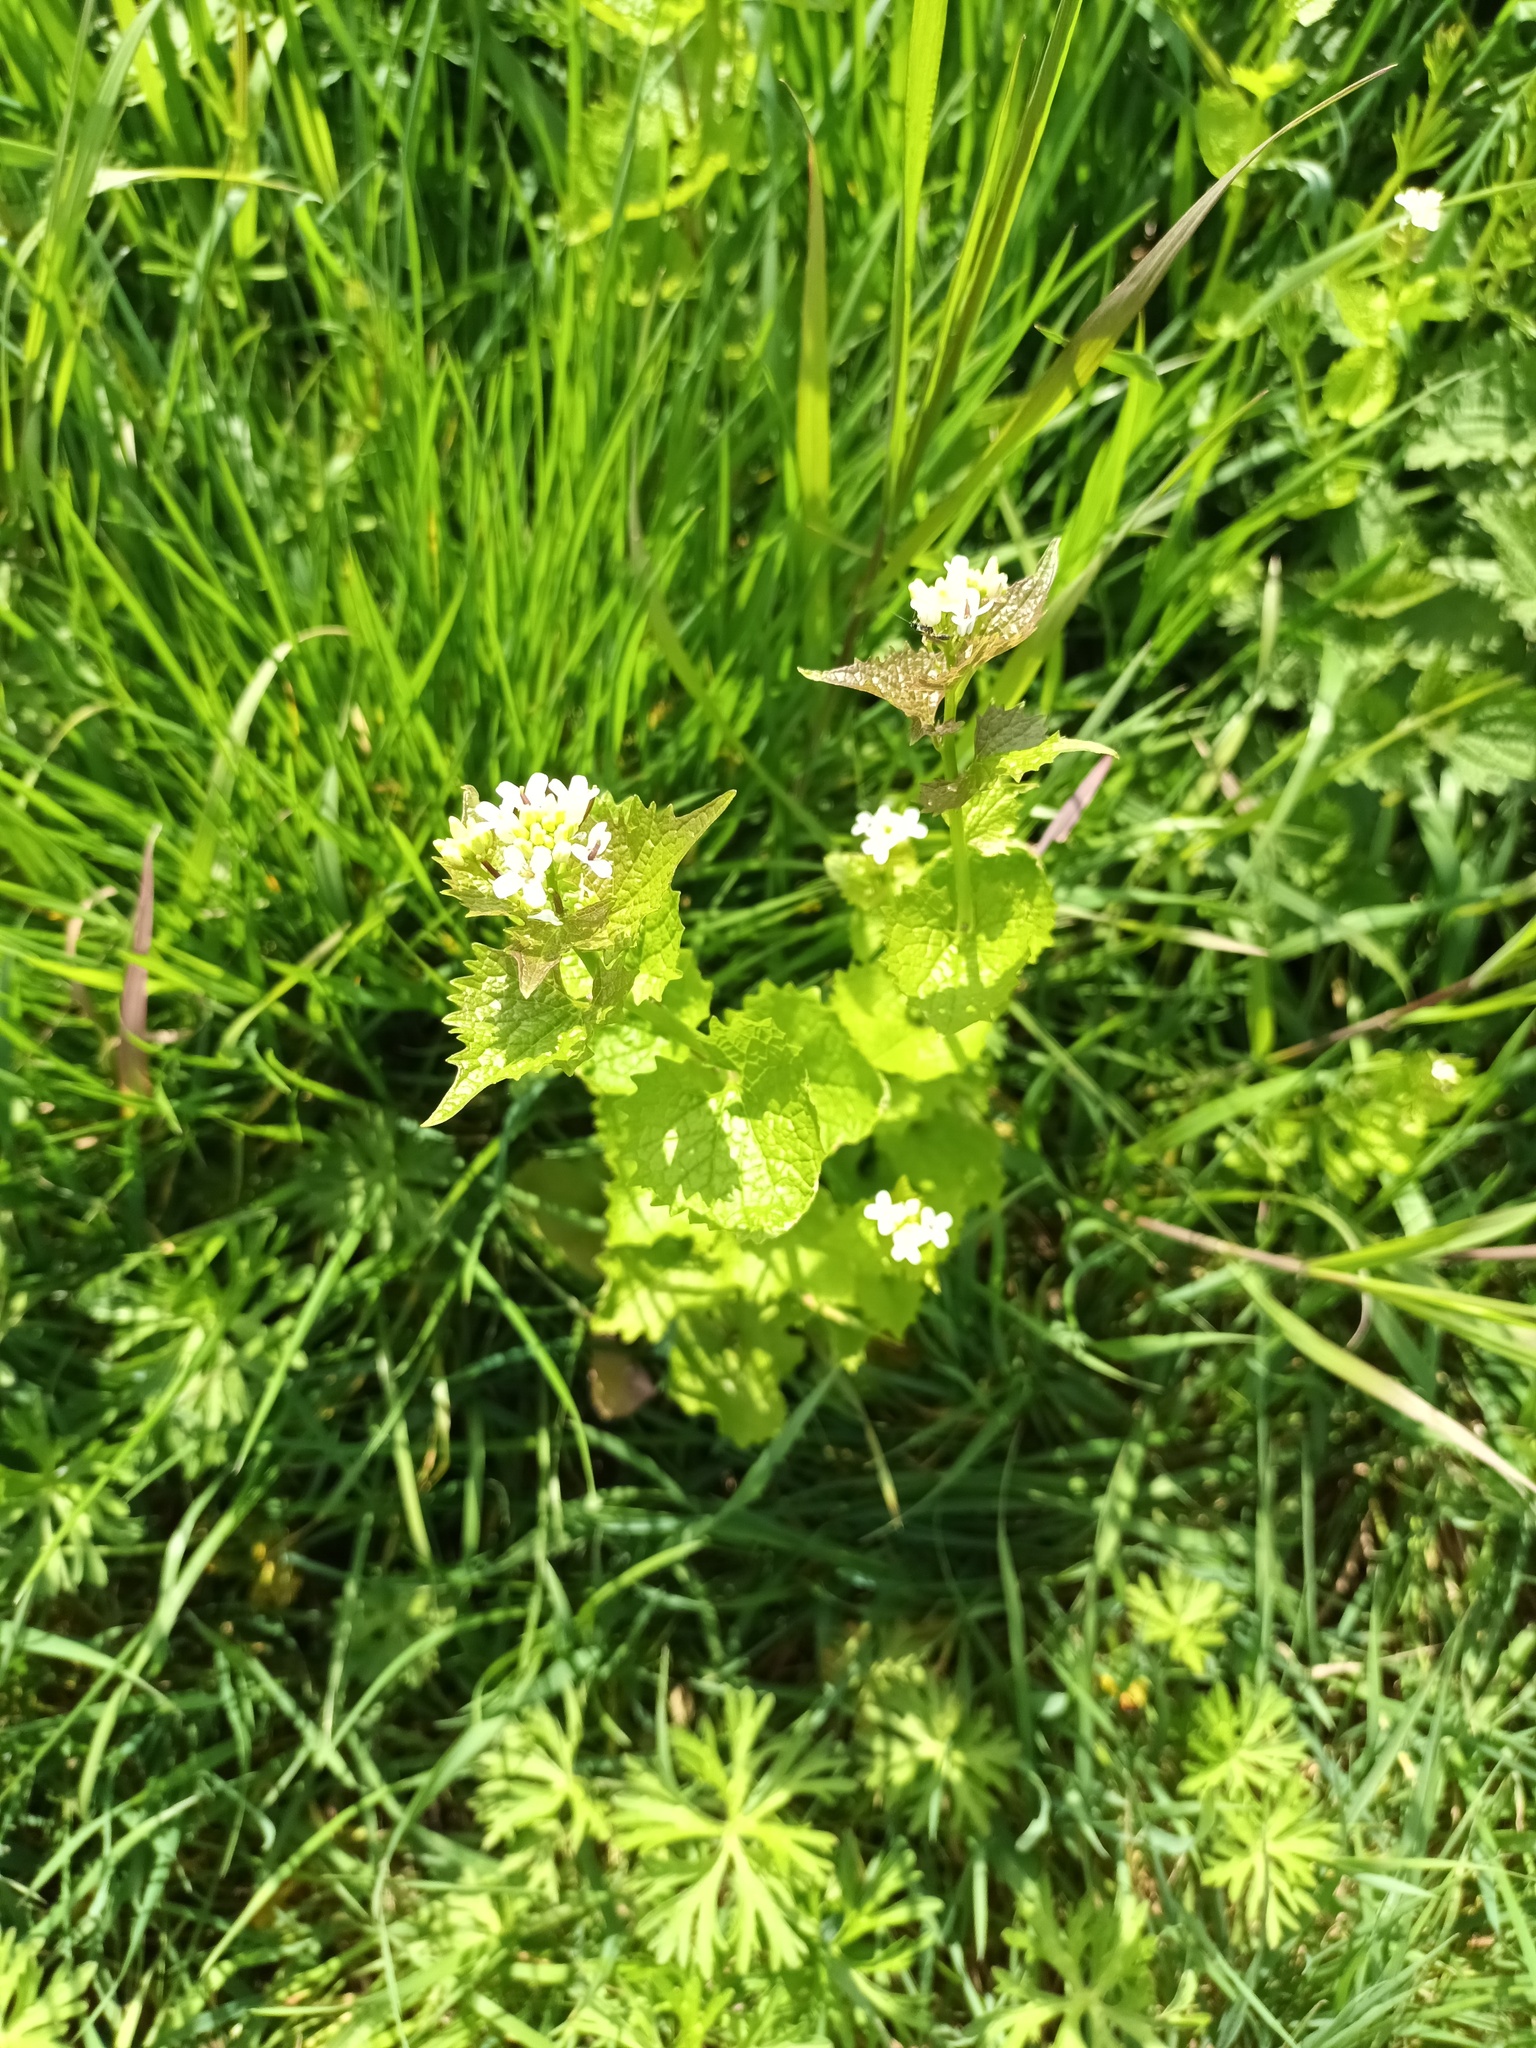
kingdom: Plantae
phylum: Tracheophyta
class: Magnoliopsida
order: Brassicales
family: Brassicaceae
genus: Alliaria
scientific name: Alliaria petiolata
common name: Garlic mustard
